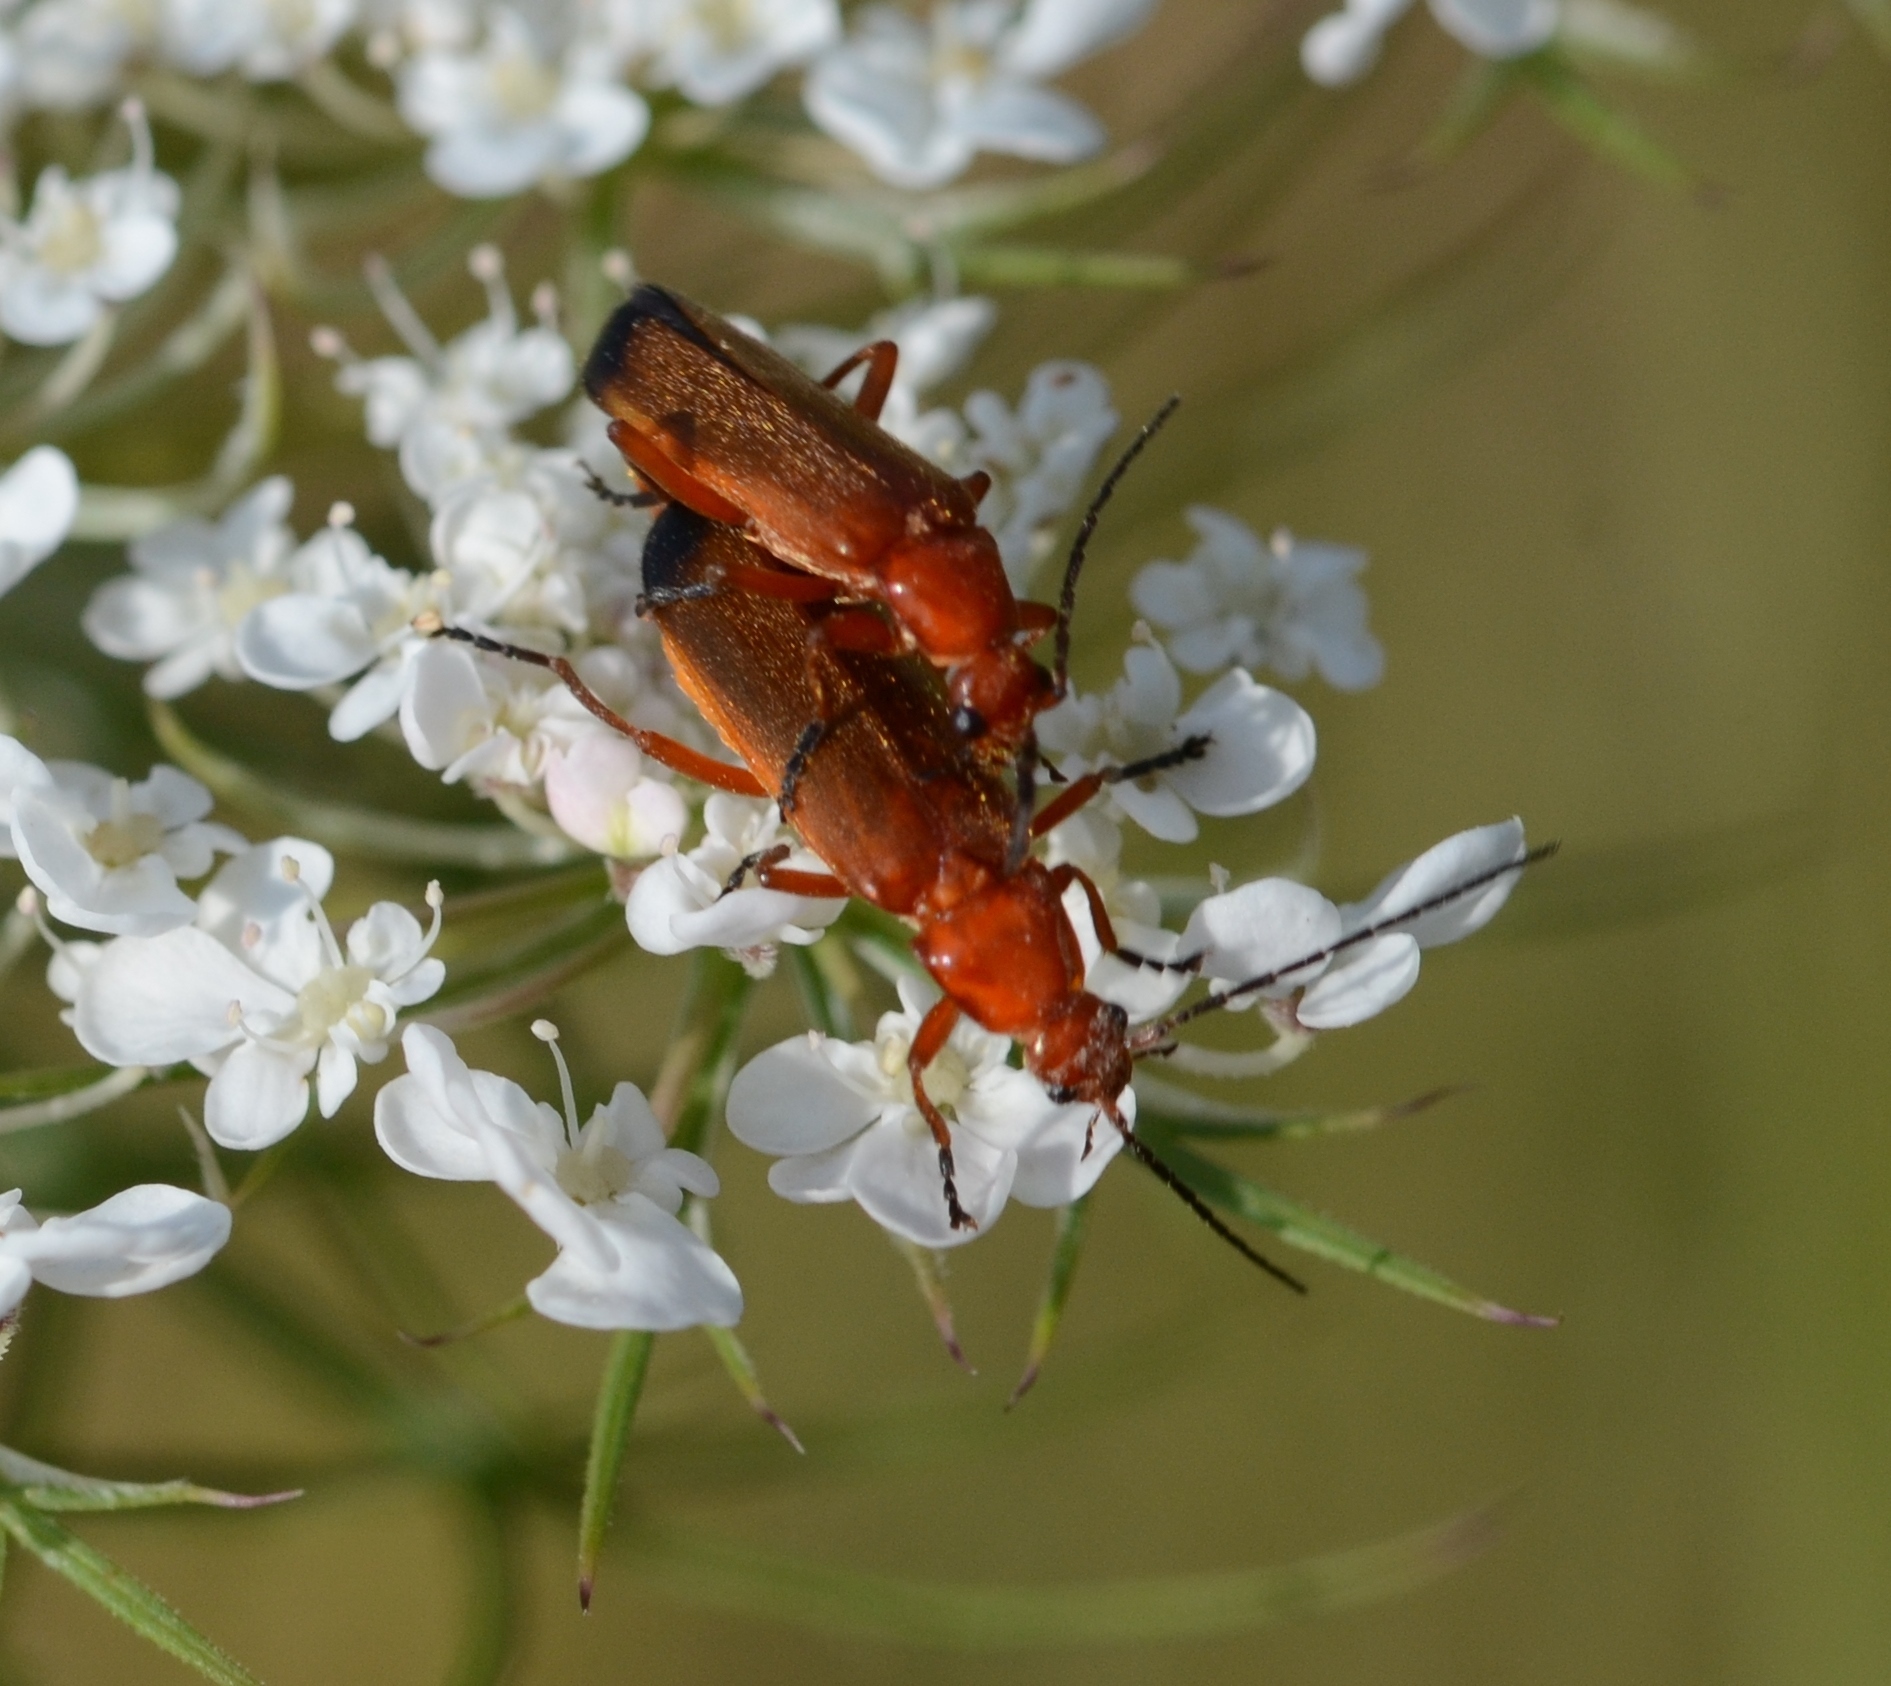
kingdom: Animalia
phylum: Arthropoda
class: Insecta
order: Coleoptera
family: Cantharidae
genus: Rhagonycha
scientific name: Rhagonycha fulva
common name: Common red soldier beetle
